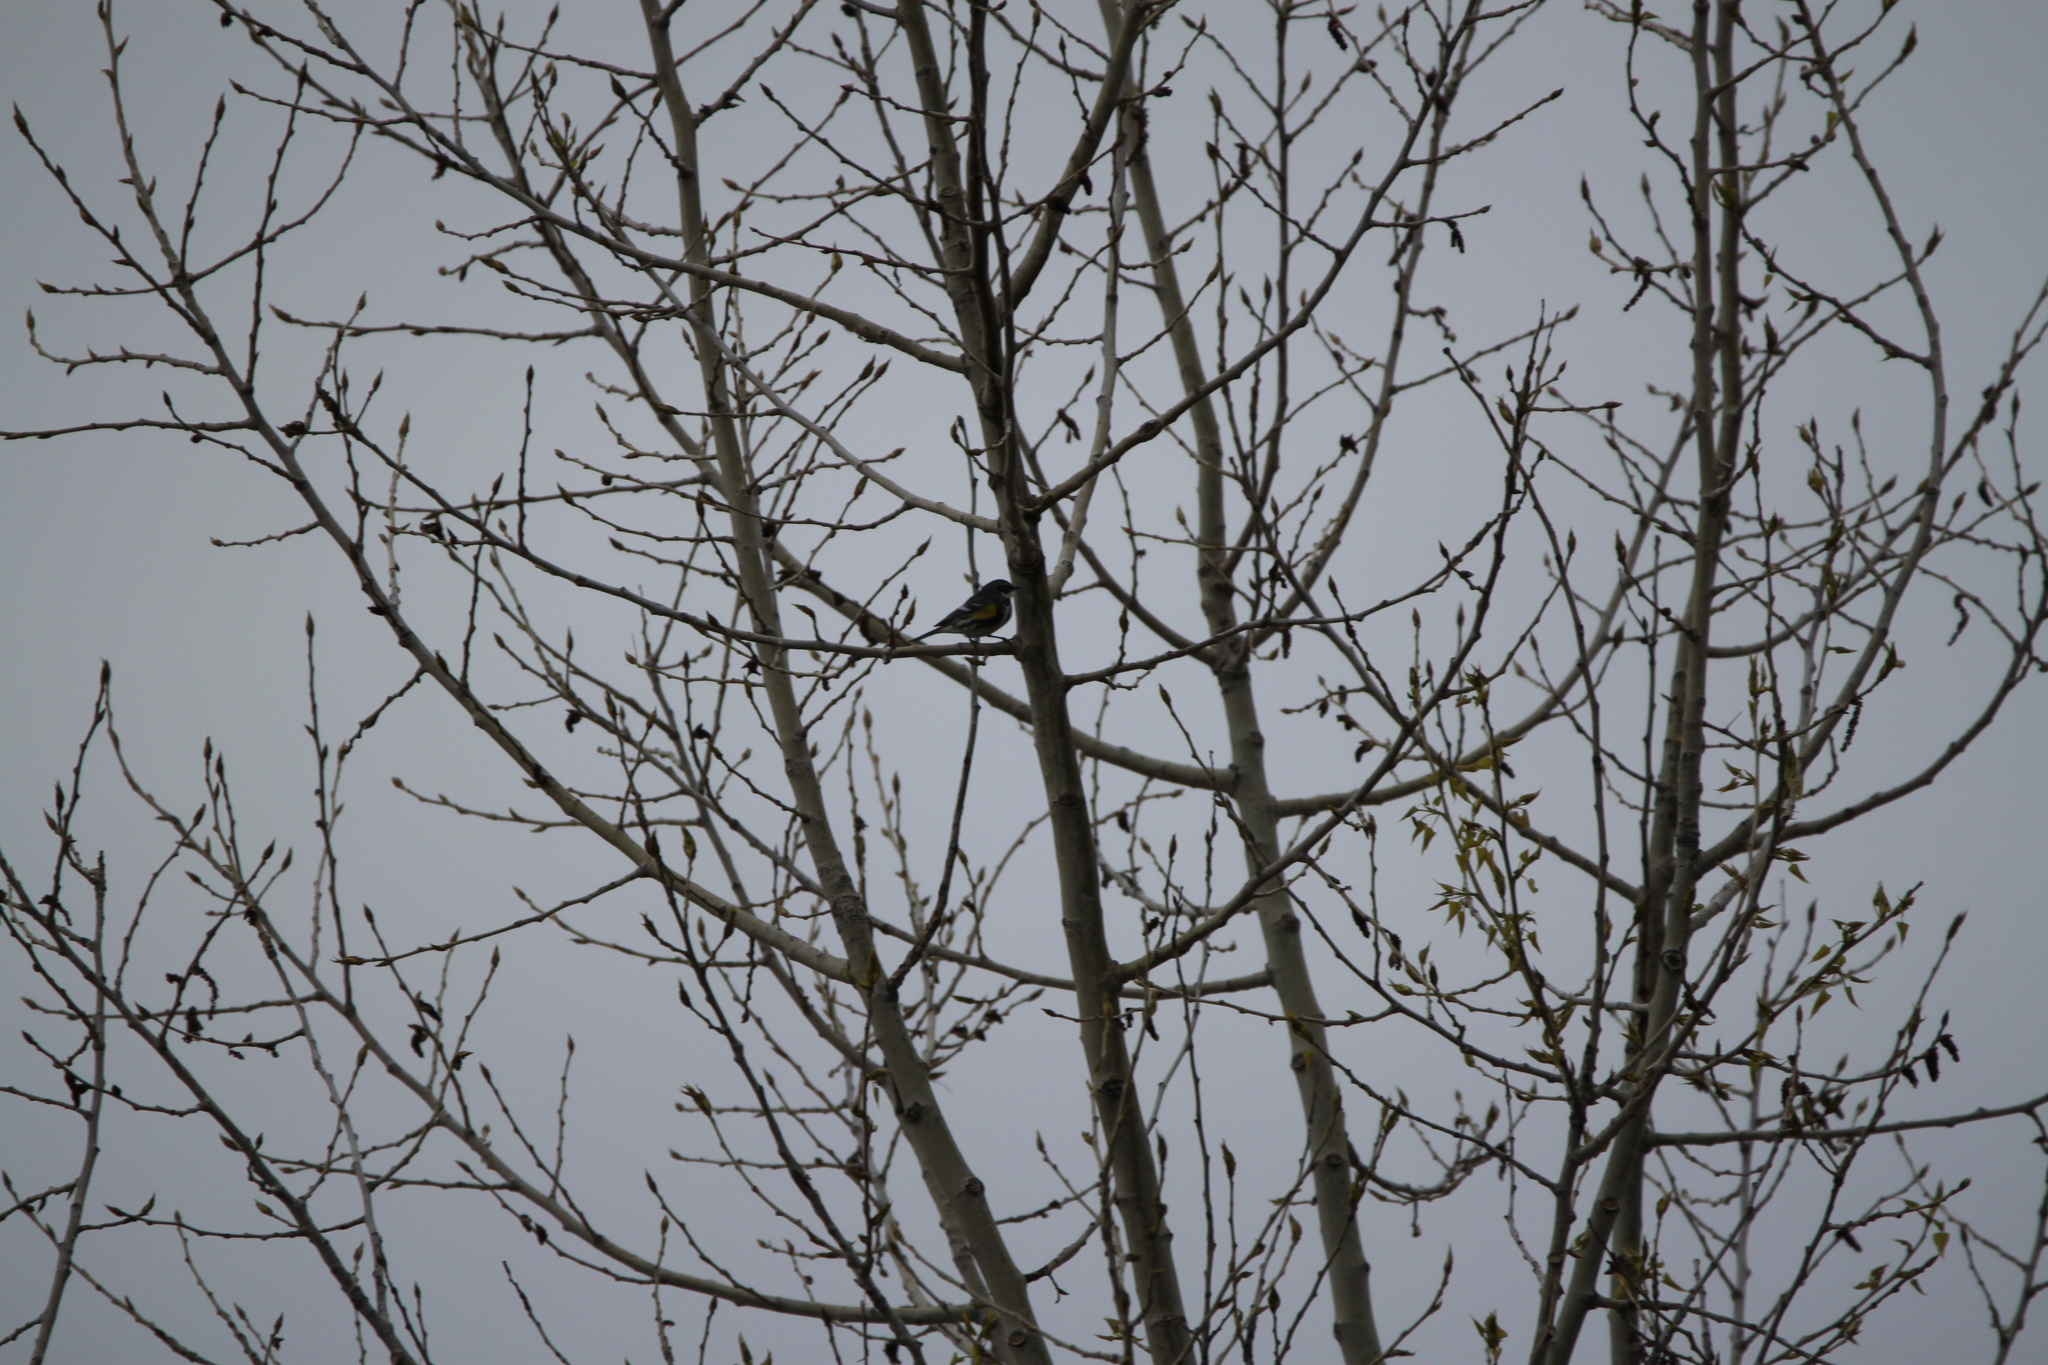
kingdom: Animalia
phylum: Chordata
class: Aves
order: Passeriformes
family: Parulidae
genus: Setophaga
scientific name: Setophaga coronata
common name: Myrtle warbler
